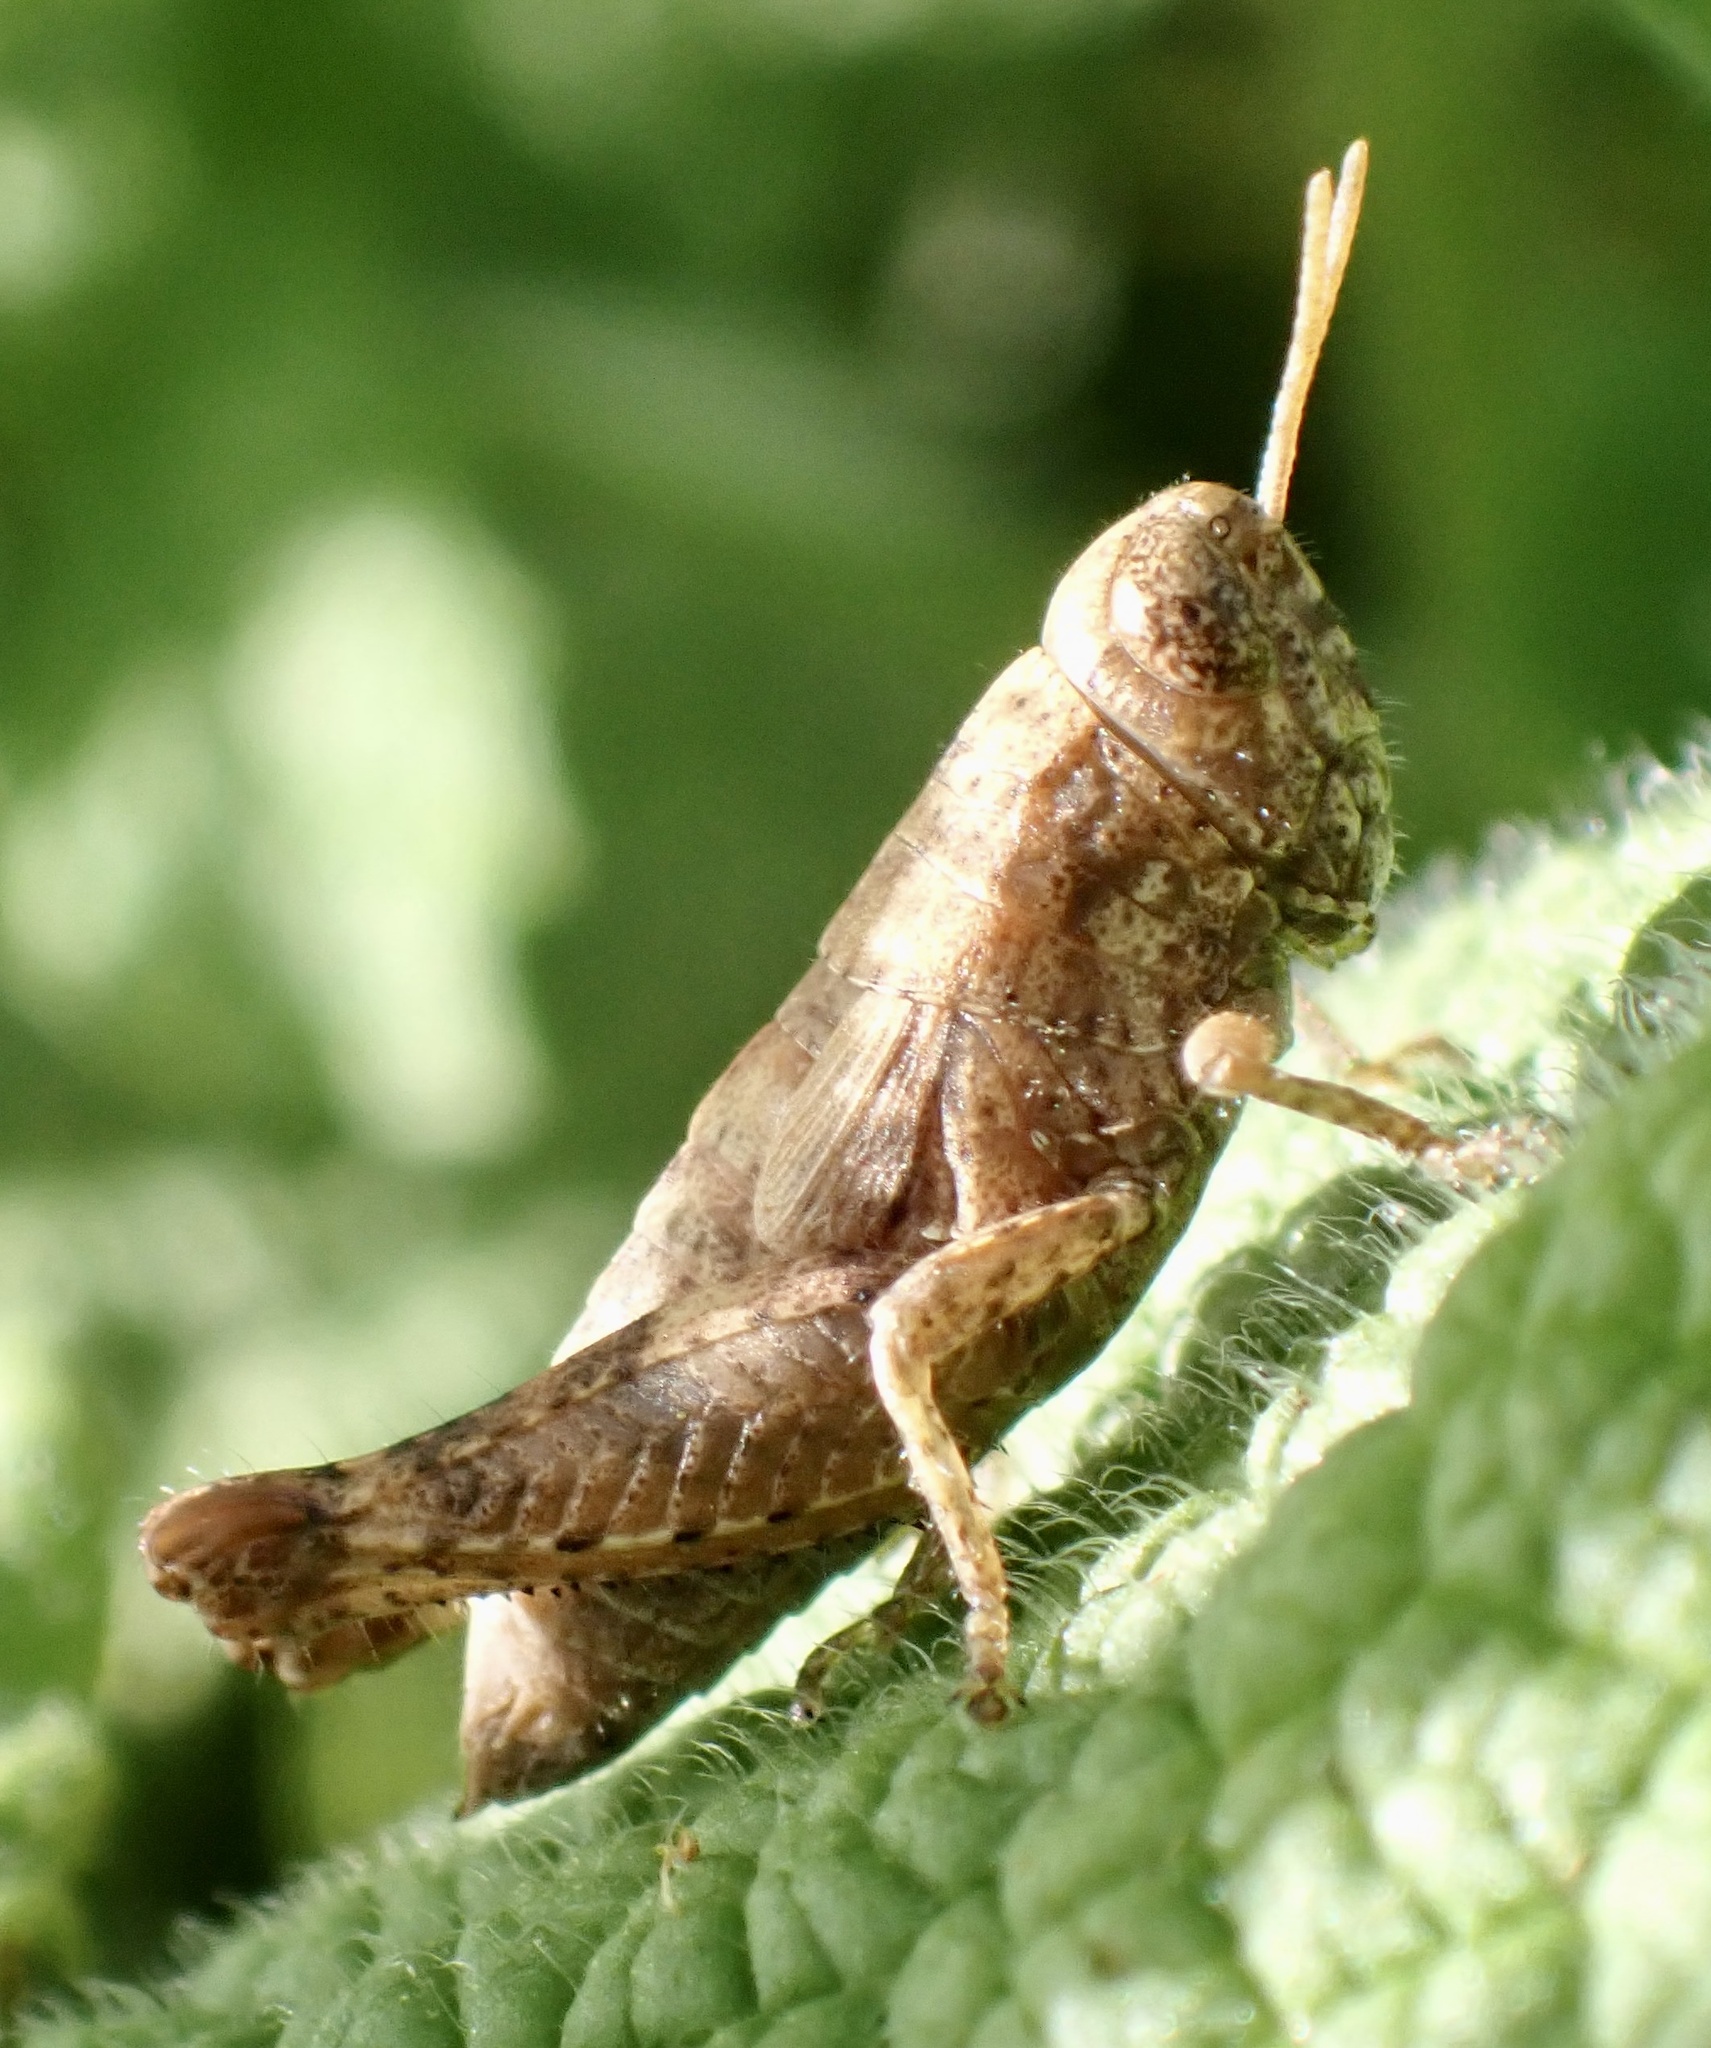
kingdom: Animalia
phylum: Arthropoda
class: Insecta
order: Orthoptera
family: Acrididae
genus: Pezotettix
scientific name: Pezotettix giornae
